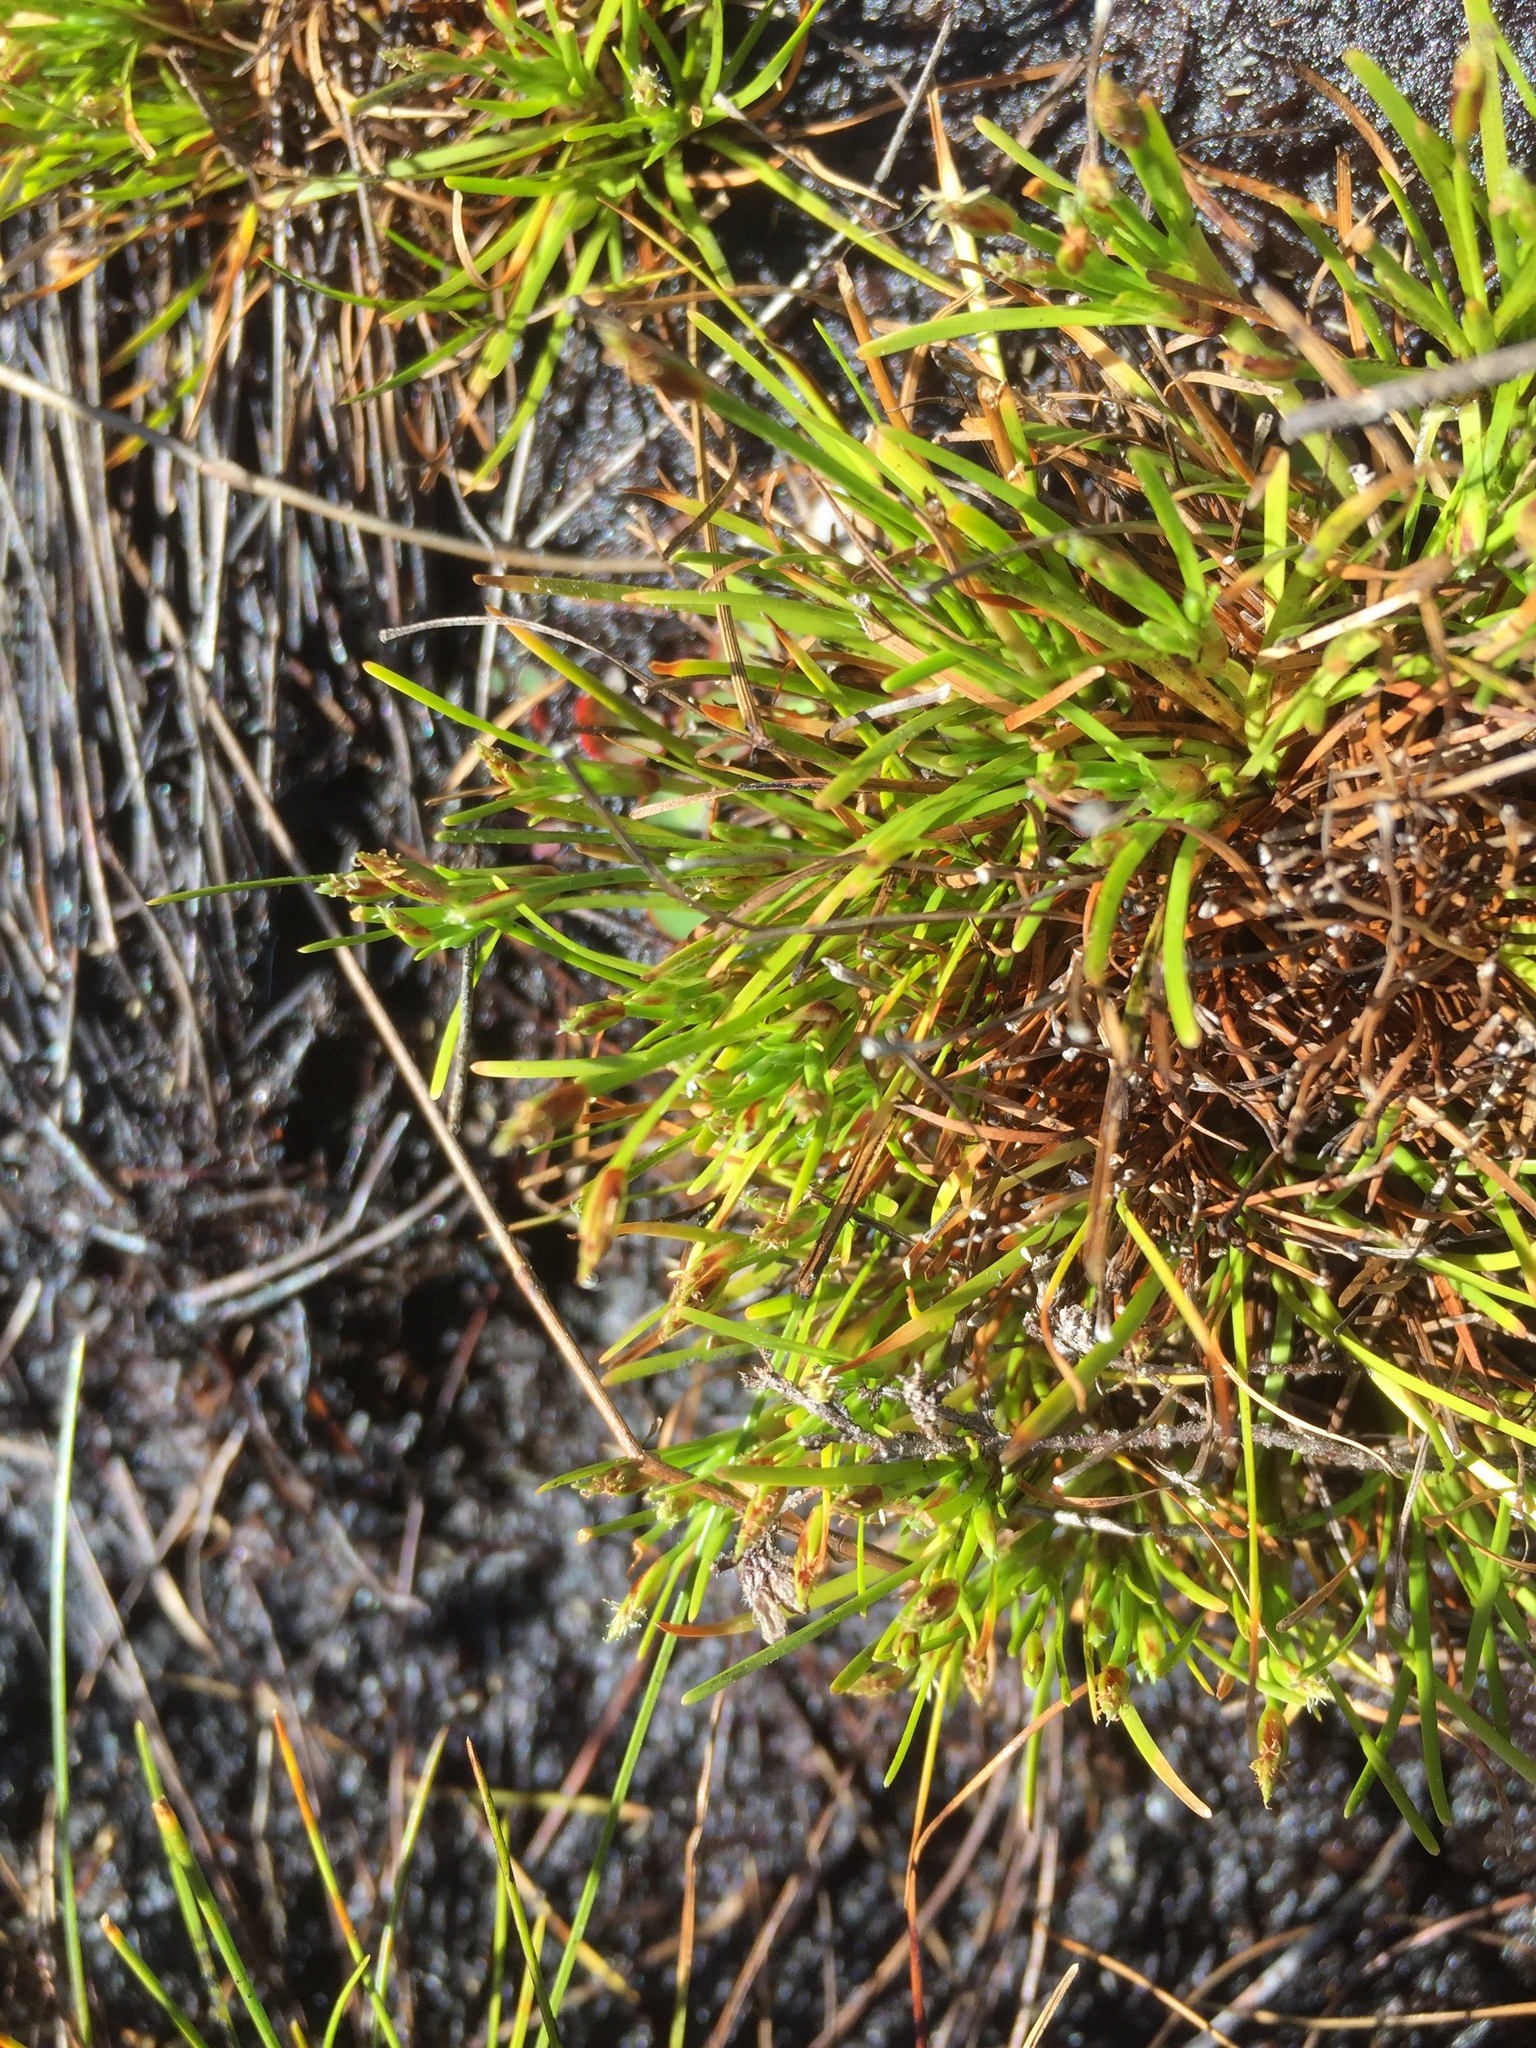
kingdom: Plantae
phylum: Tracheophyta
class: Liliopsida
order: Poales
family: Cyperaceae
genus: Ficinia
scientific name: Ficinia limosa
